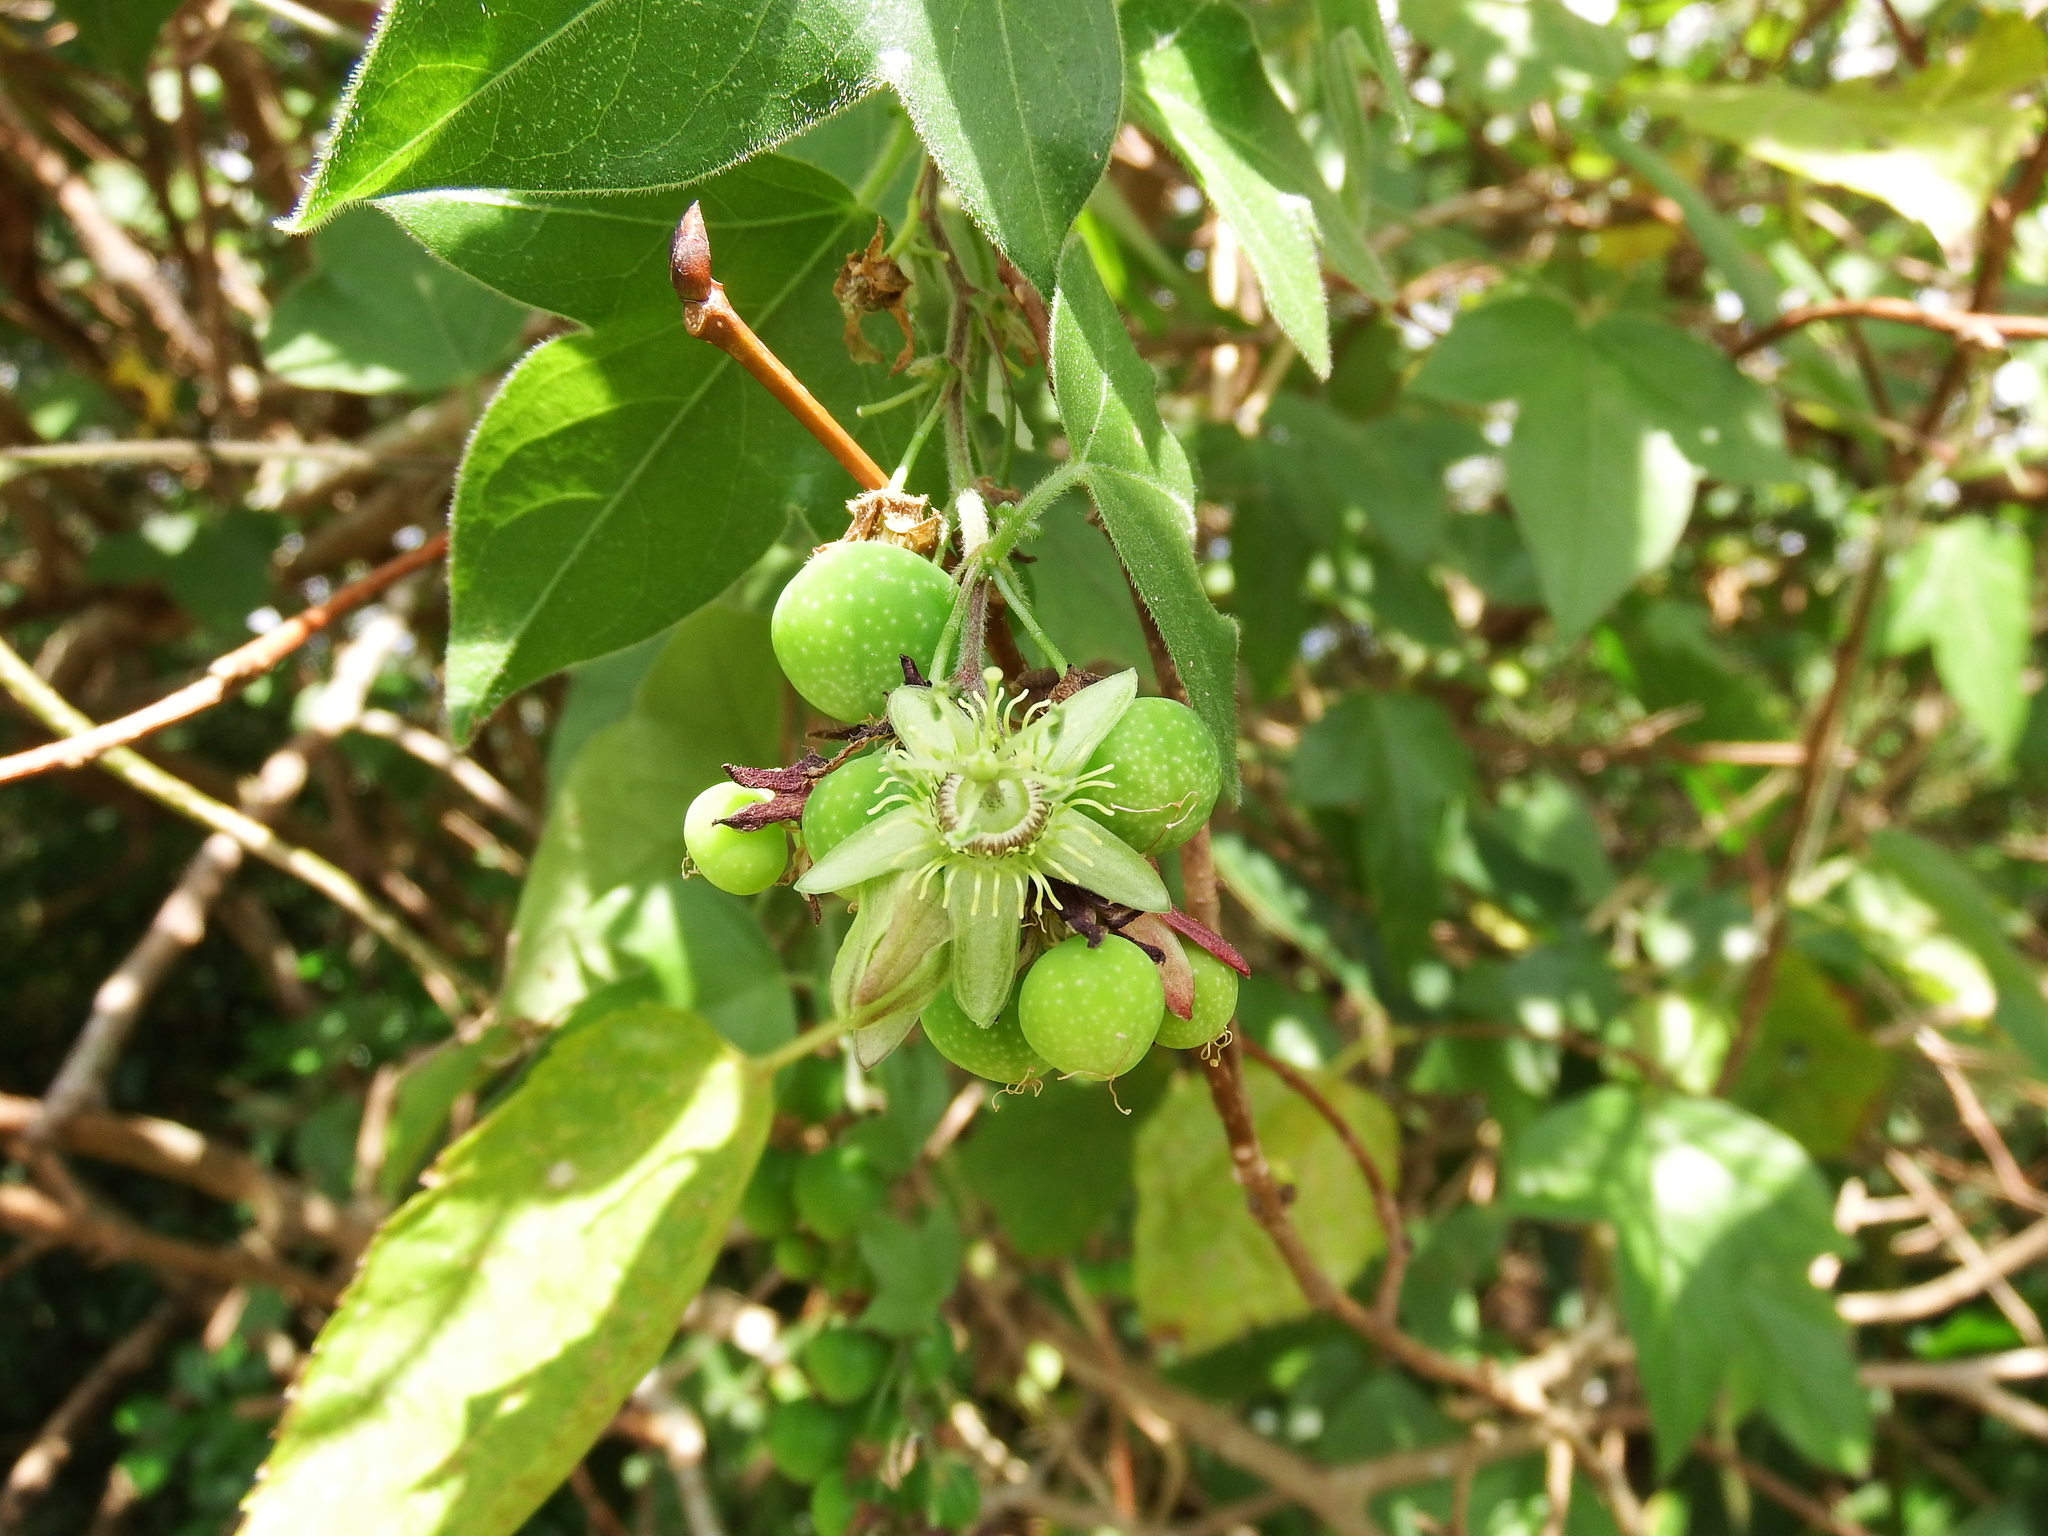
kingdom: Plantae
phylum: Tracheophyta
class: Magnoliopsida
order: Malpighiales
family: Passifloraceae
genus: Passiflora
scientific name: Passiflora suberosa
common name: Wild passionfruit
